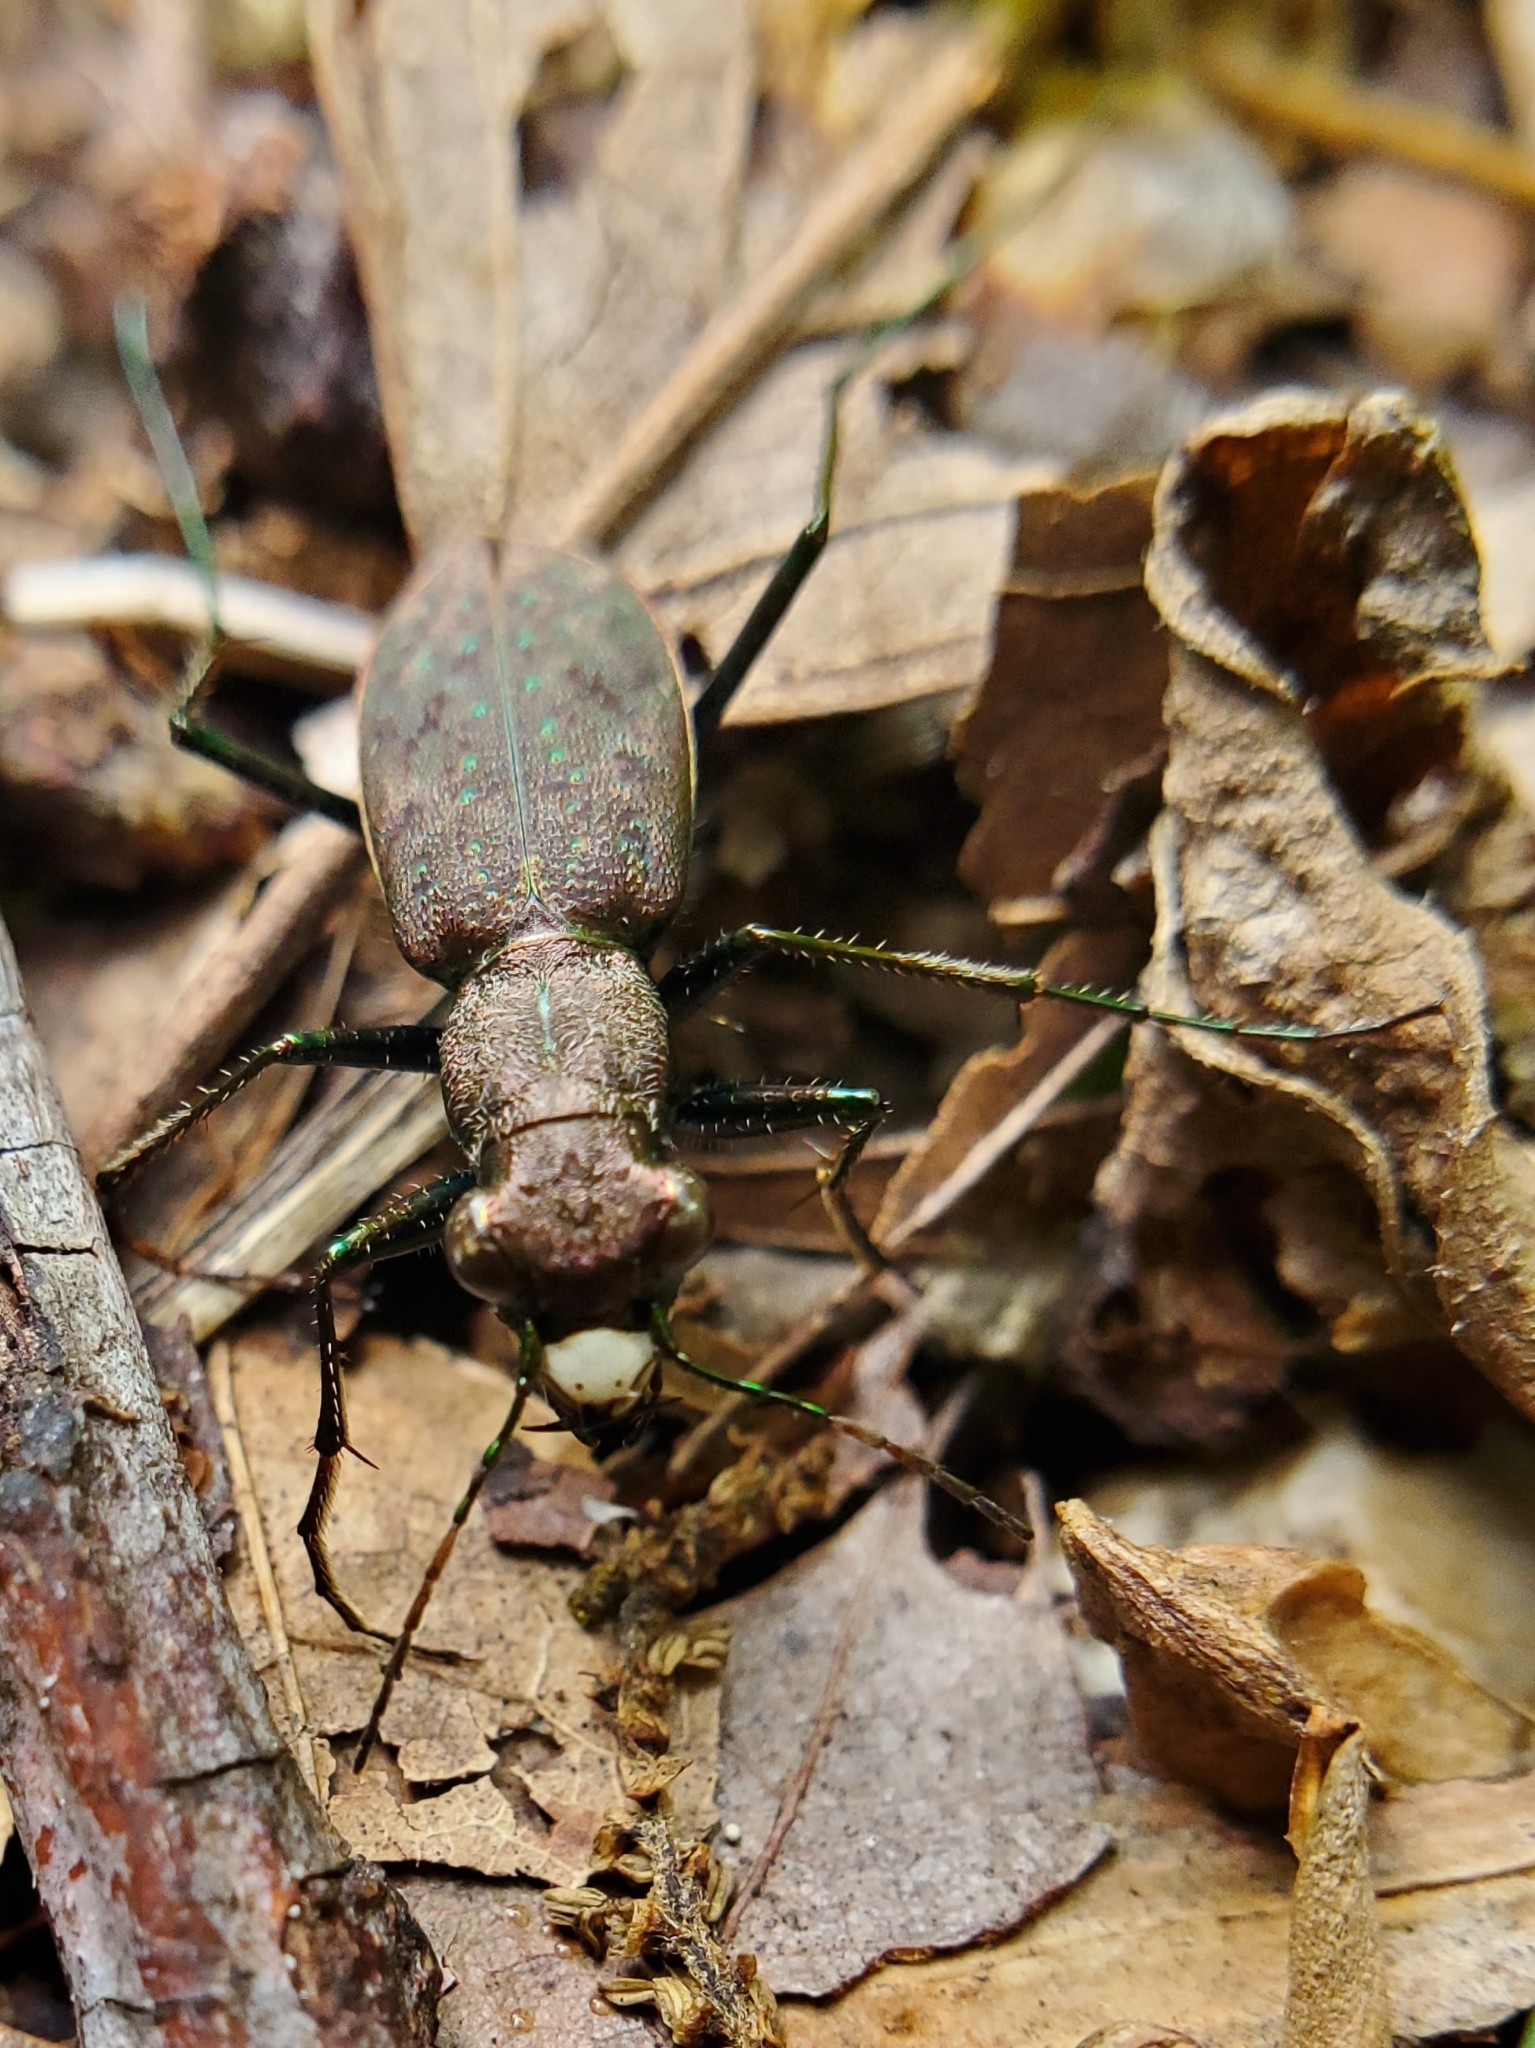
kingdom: Animalia
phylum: Arthropoda
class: Insecta
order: Coleoptera
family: Carabidae
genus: Cylindera
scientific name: Cylindera unipunctata
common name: One-spotted tiger beetle
